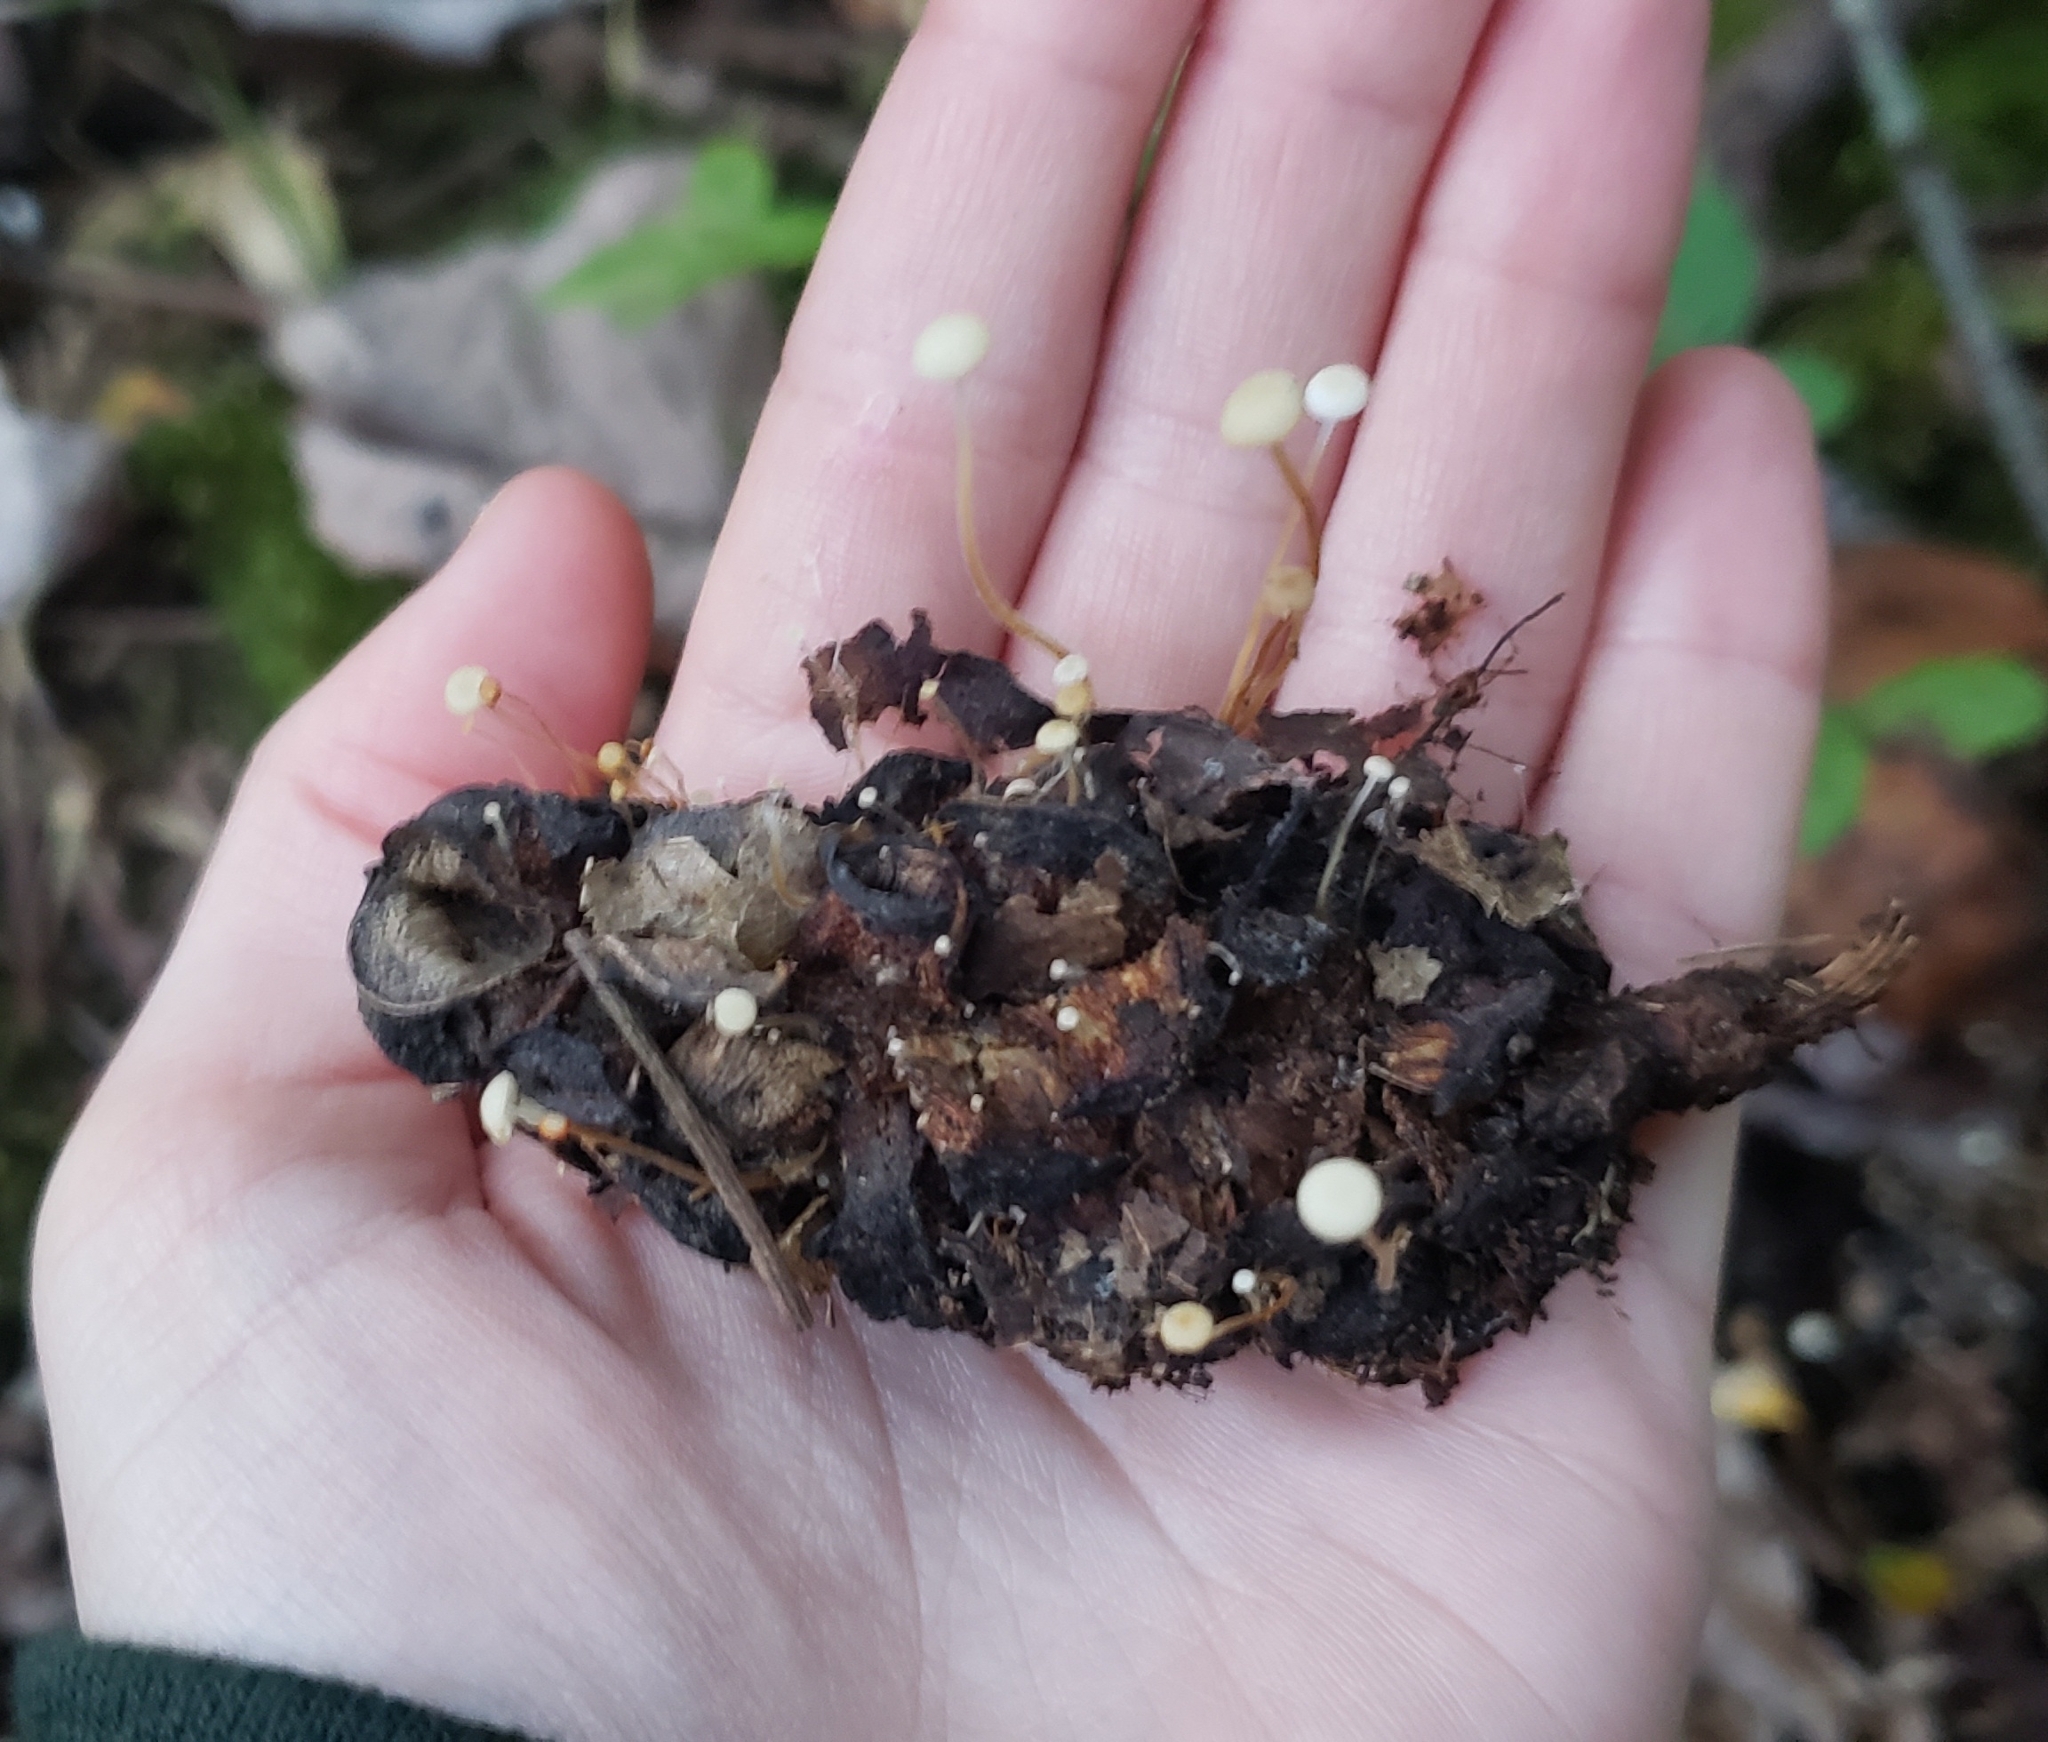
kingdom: Fungi
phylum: Basidiomycota
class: Agaricomycetes
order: Agaricales
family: Physalacriaceae
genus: Strobilurus
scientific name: Strobilurus conigenoides
